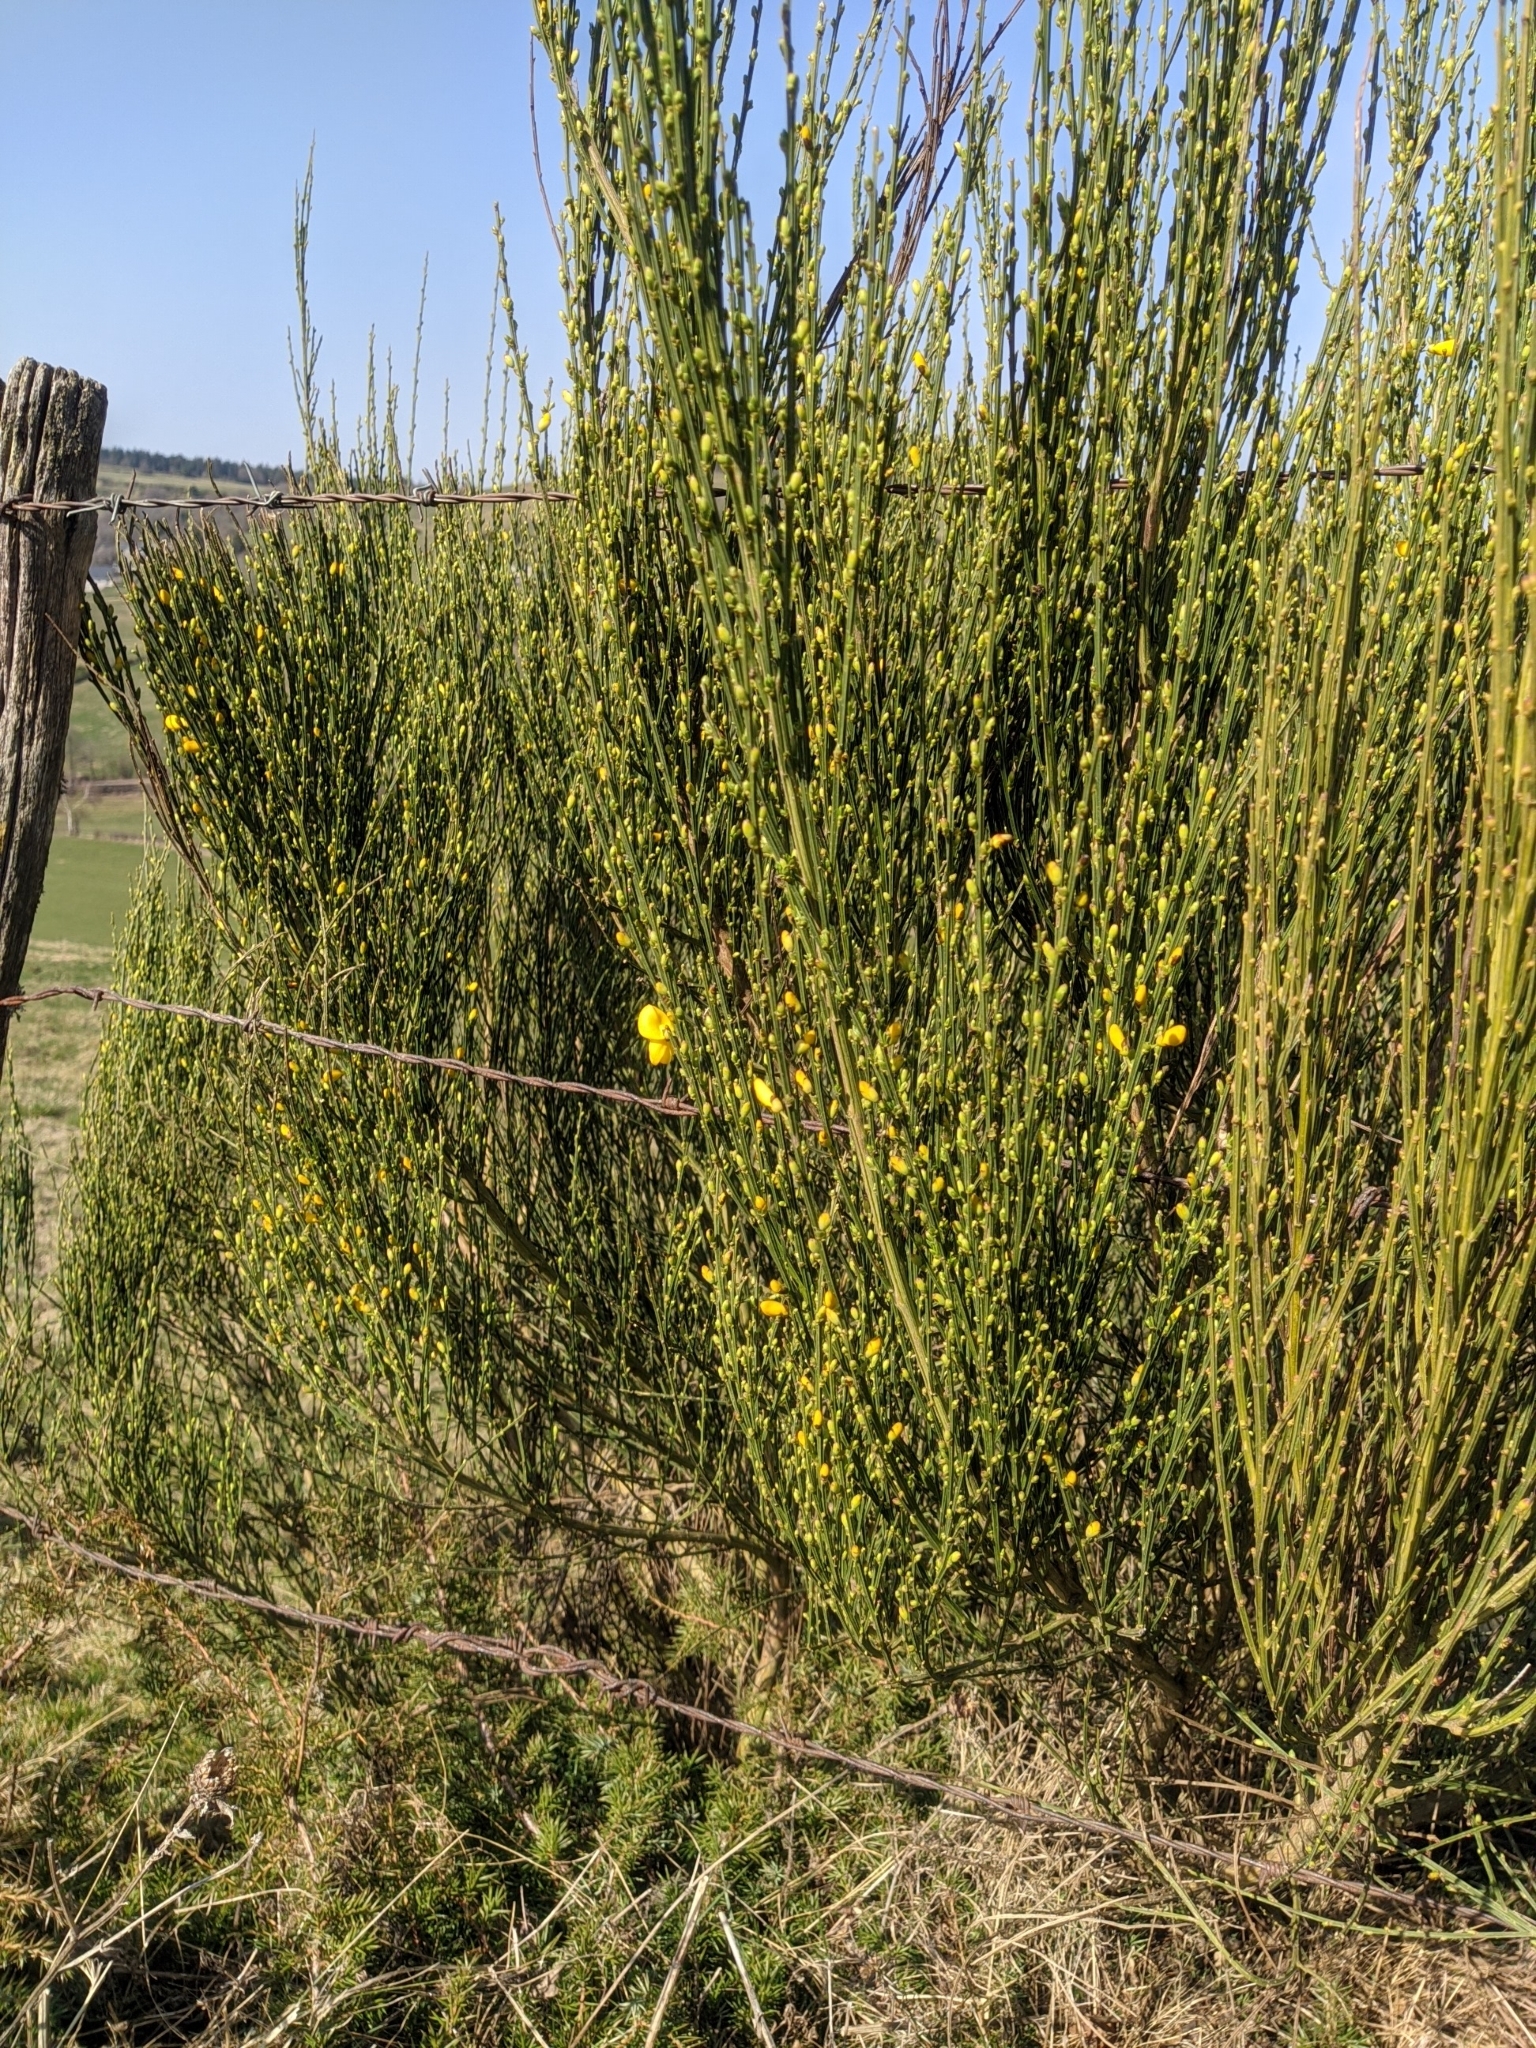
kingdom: Plantae
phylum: Tracheophyta
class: Magnoliopsida
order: Fabales
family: Fabaceae
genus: Cytisus
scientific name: Cytisus oromediterraneus
